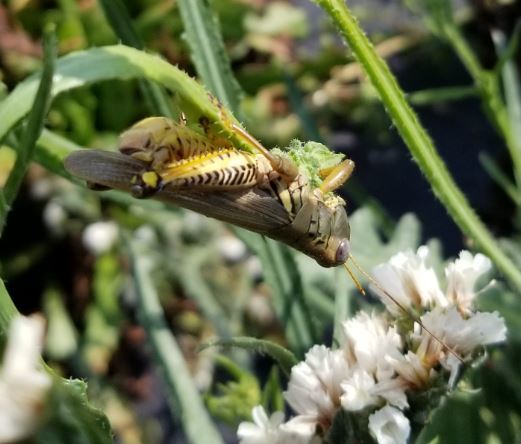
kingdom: Animalia
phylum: Arthropoda
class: Insecta
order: Orthoptera
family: Acrididae
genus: Melanoplus
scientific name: Melanoplus differentialis
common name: Differential grasshopper
